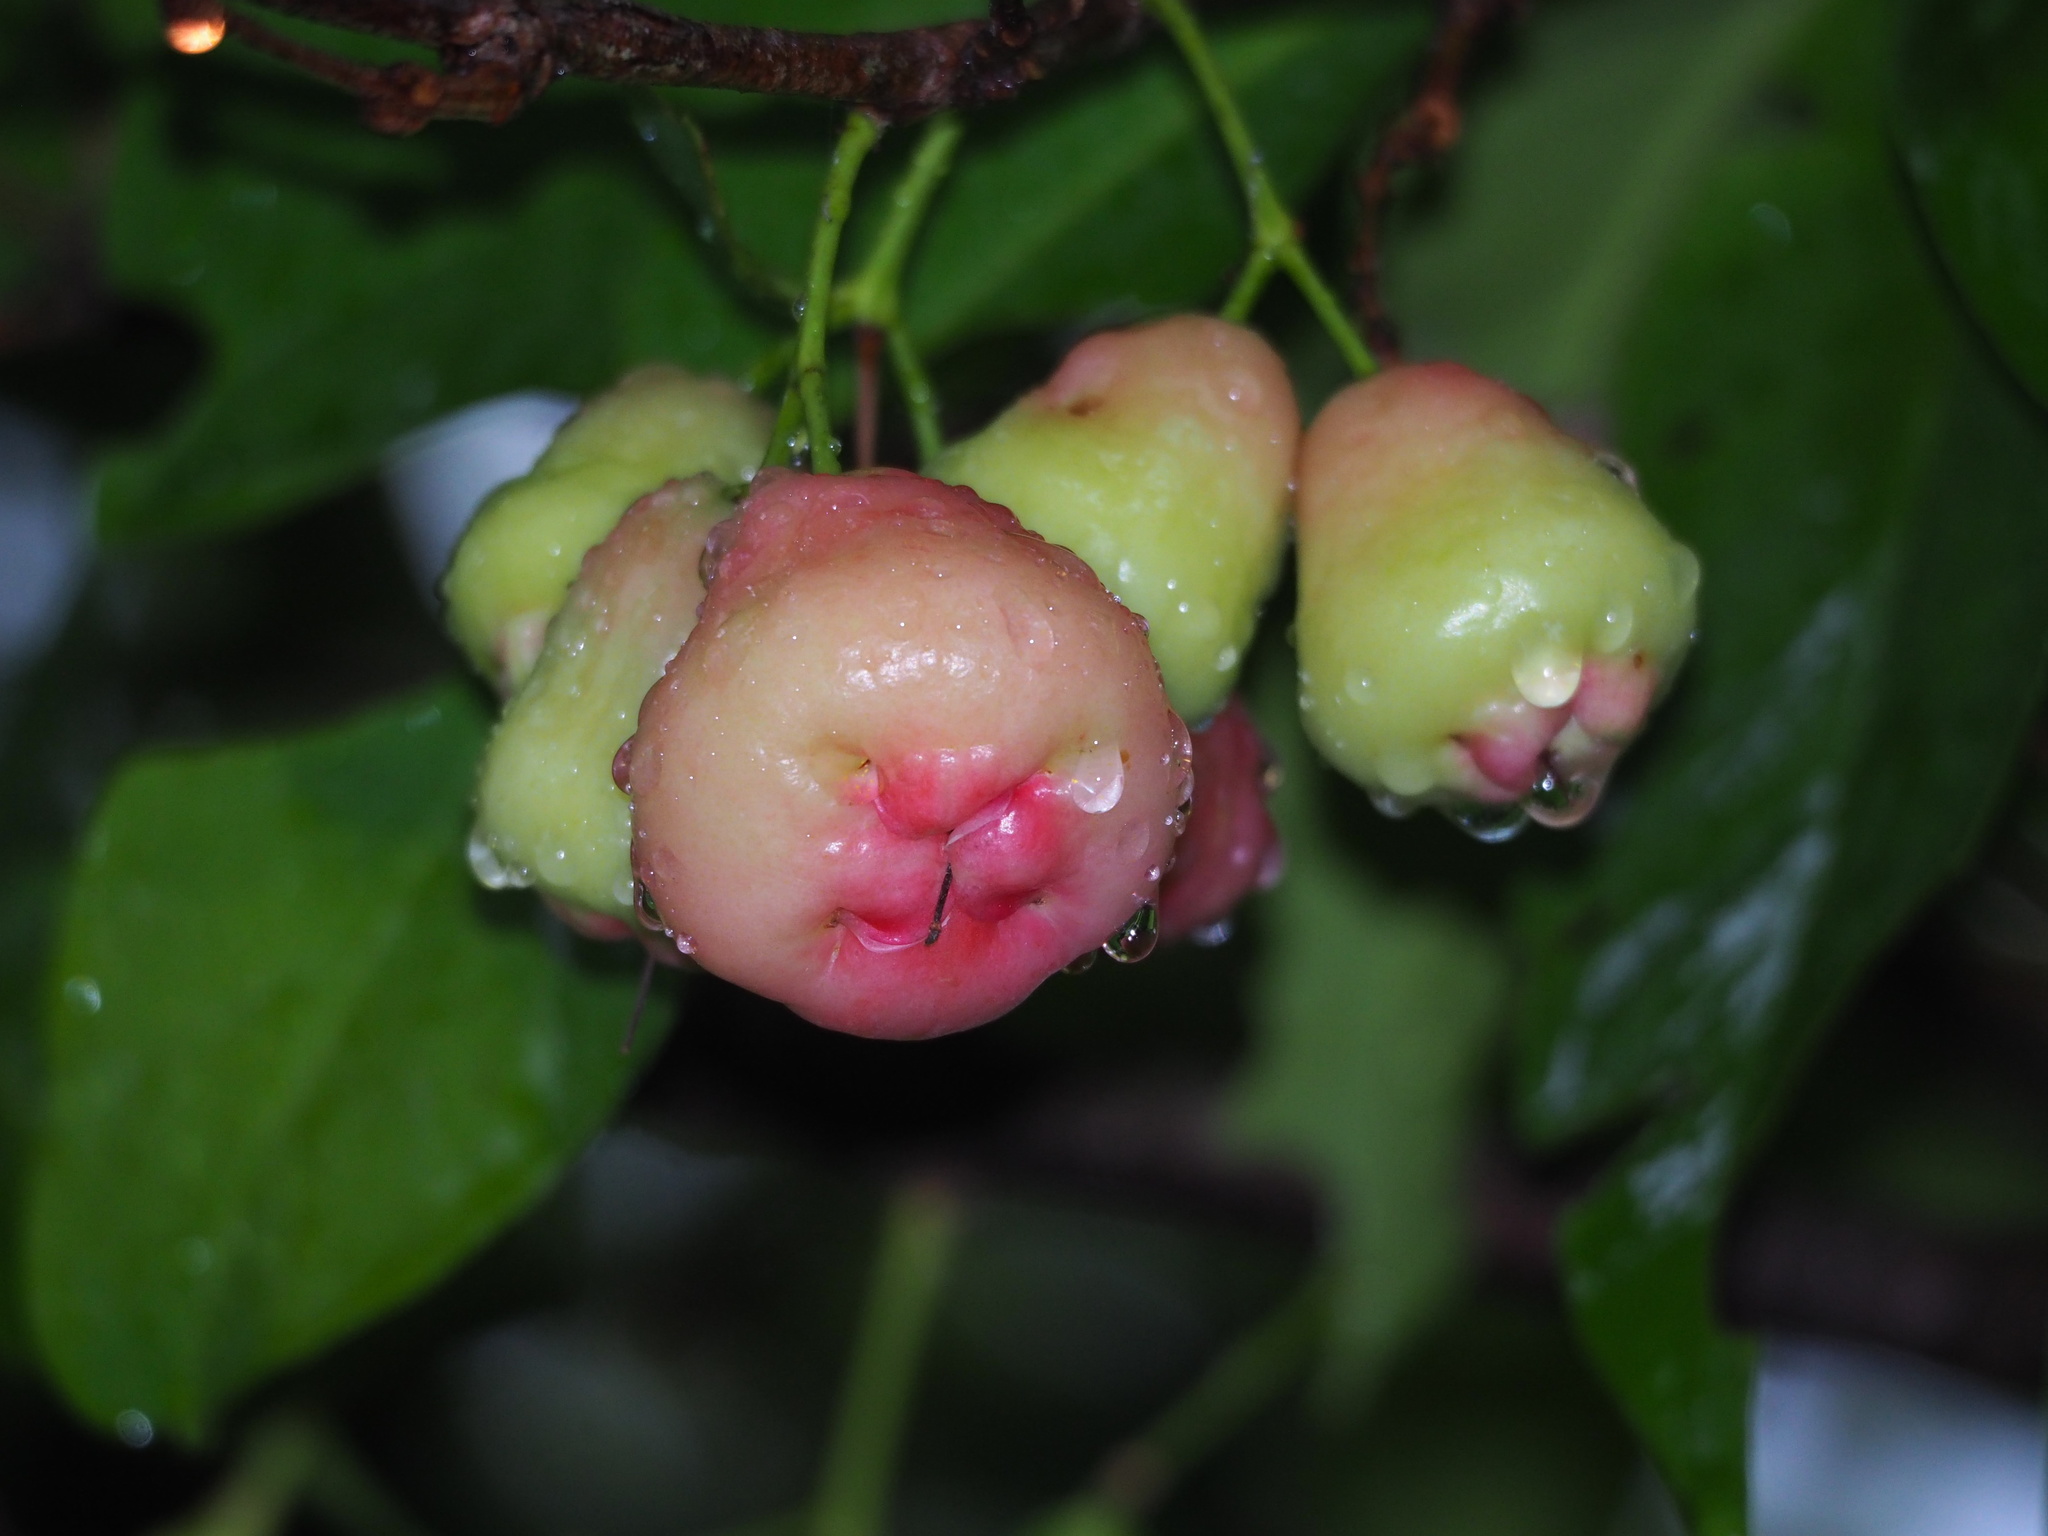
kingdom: Plantae
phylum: Tracheophyta
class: Magnoliopsida
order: Myrtales
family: Myrtaceae
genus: Syzygium
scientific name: Syzygium samarangense
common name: Semarang rose-apple
